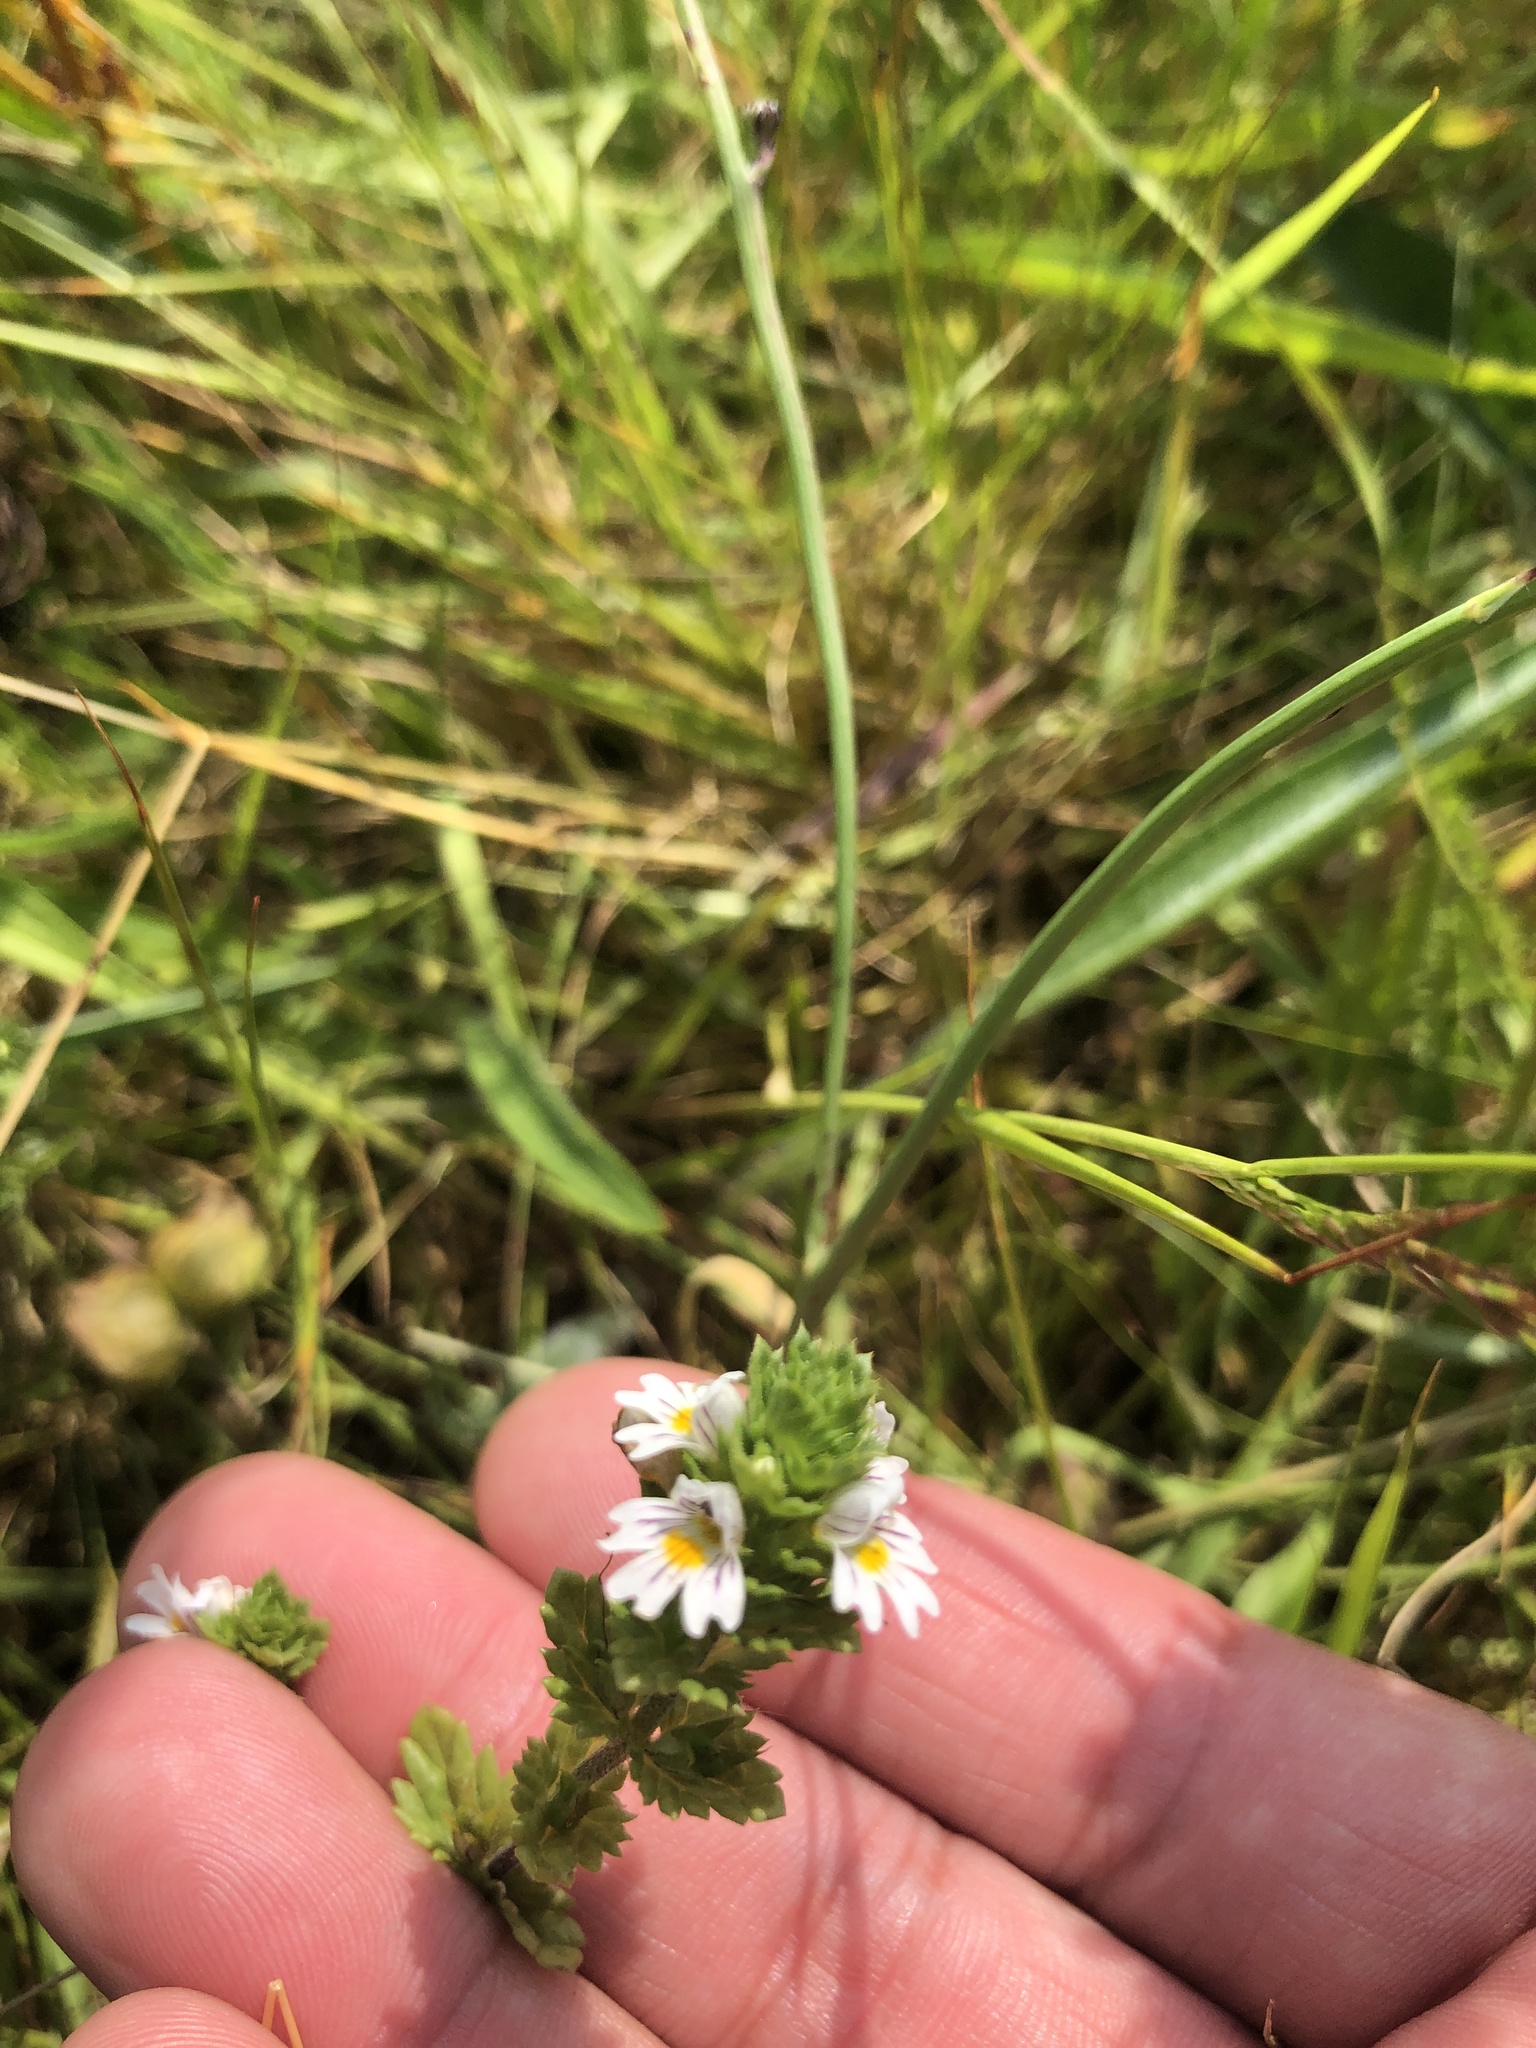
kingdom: Plantae
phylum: Tracheophyta
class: Magnoliopsida
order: Lamiales
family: Orobanchaceae
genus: Euphrasia
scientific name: Euphrasia nemorosa
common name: Common eyebright
